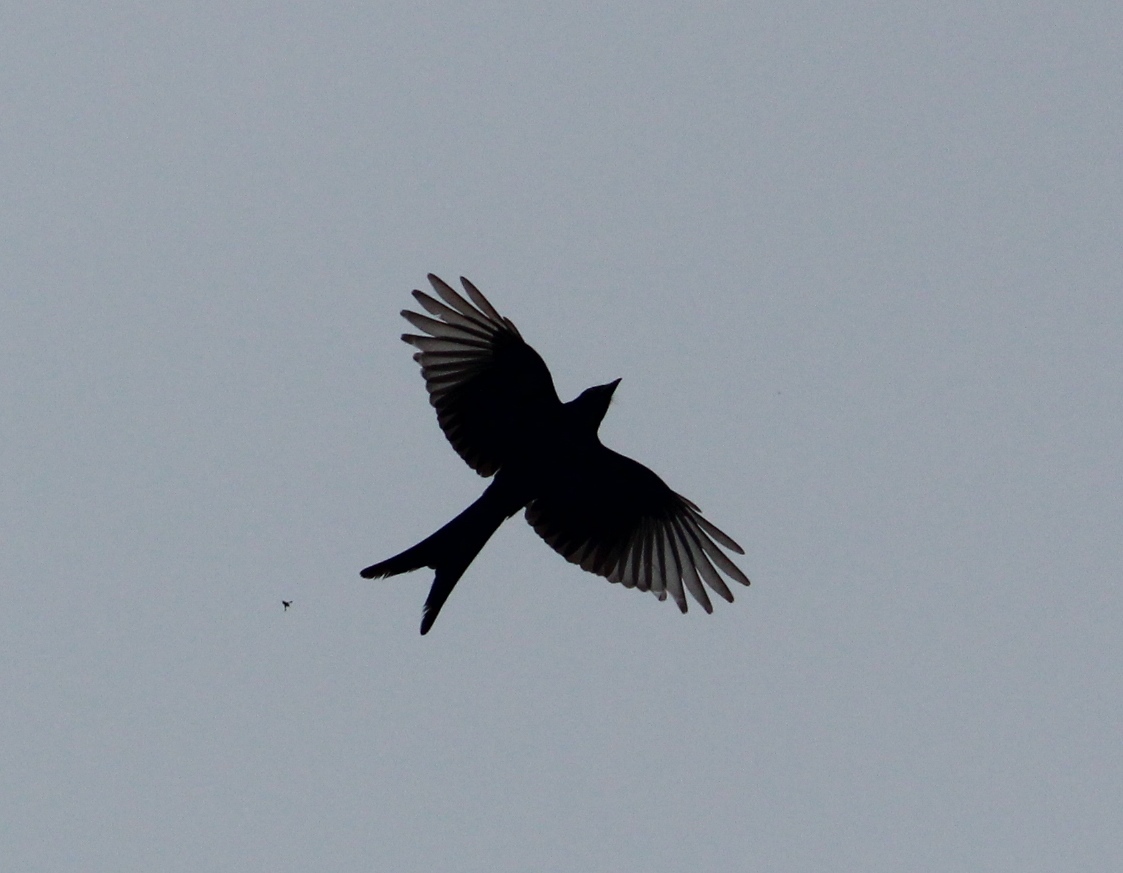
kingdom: Animalia
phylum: Chordata
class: Aves
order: Passeriformes
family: Dicruridae
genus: Dicrurus
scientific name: Dicrurus macrocercus
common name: Black drongo
